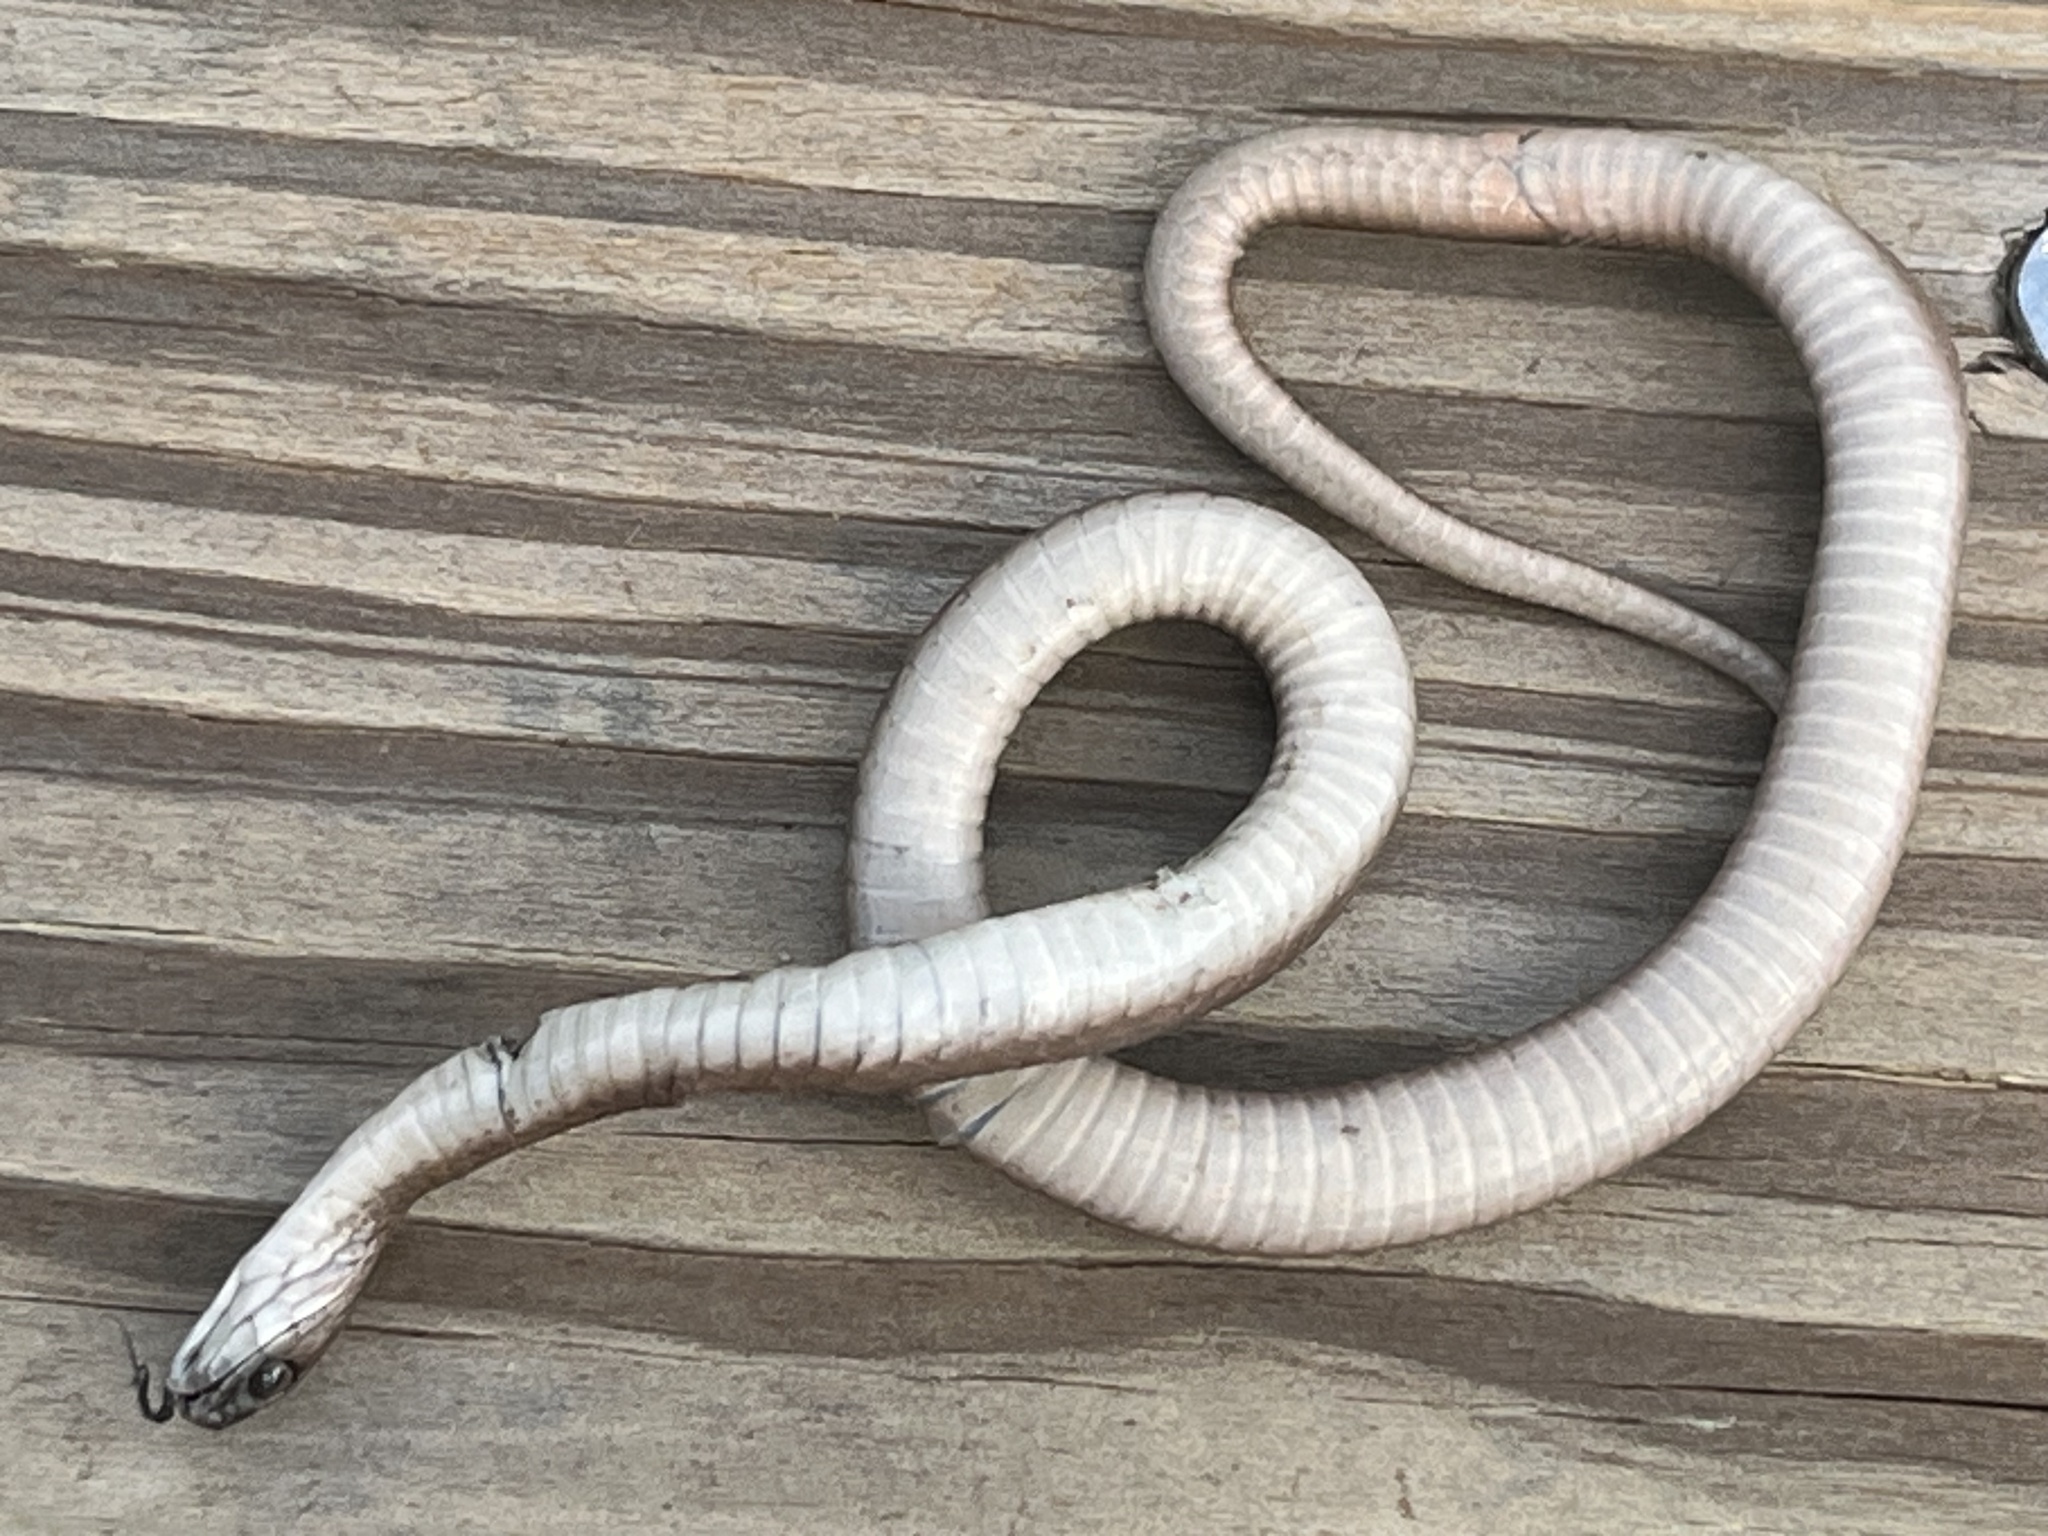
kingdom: Animalia
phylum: Chordata
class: Squamata
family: Colubridae
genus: Storeria
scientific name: Storeria dekayi
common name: (dekay’s) brown snake
